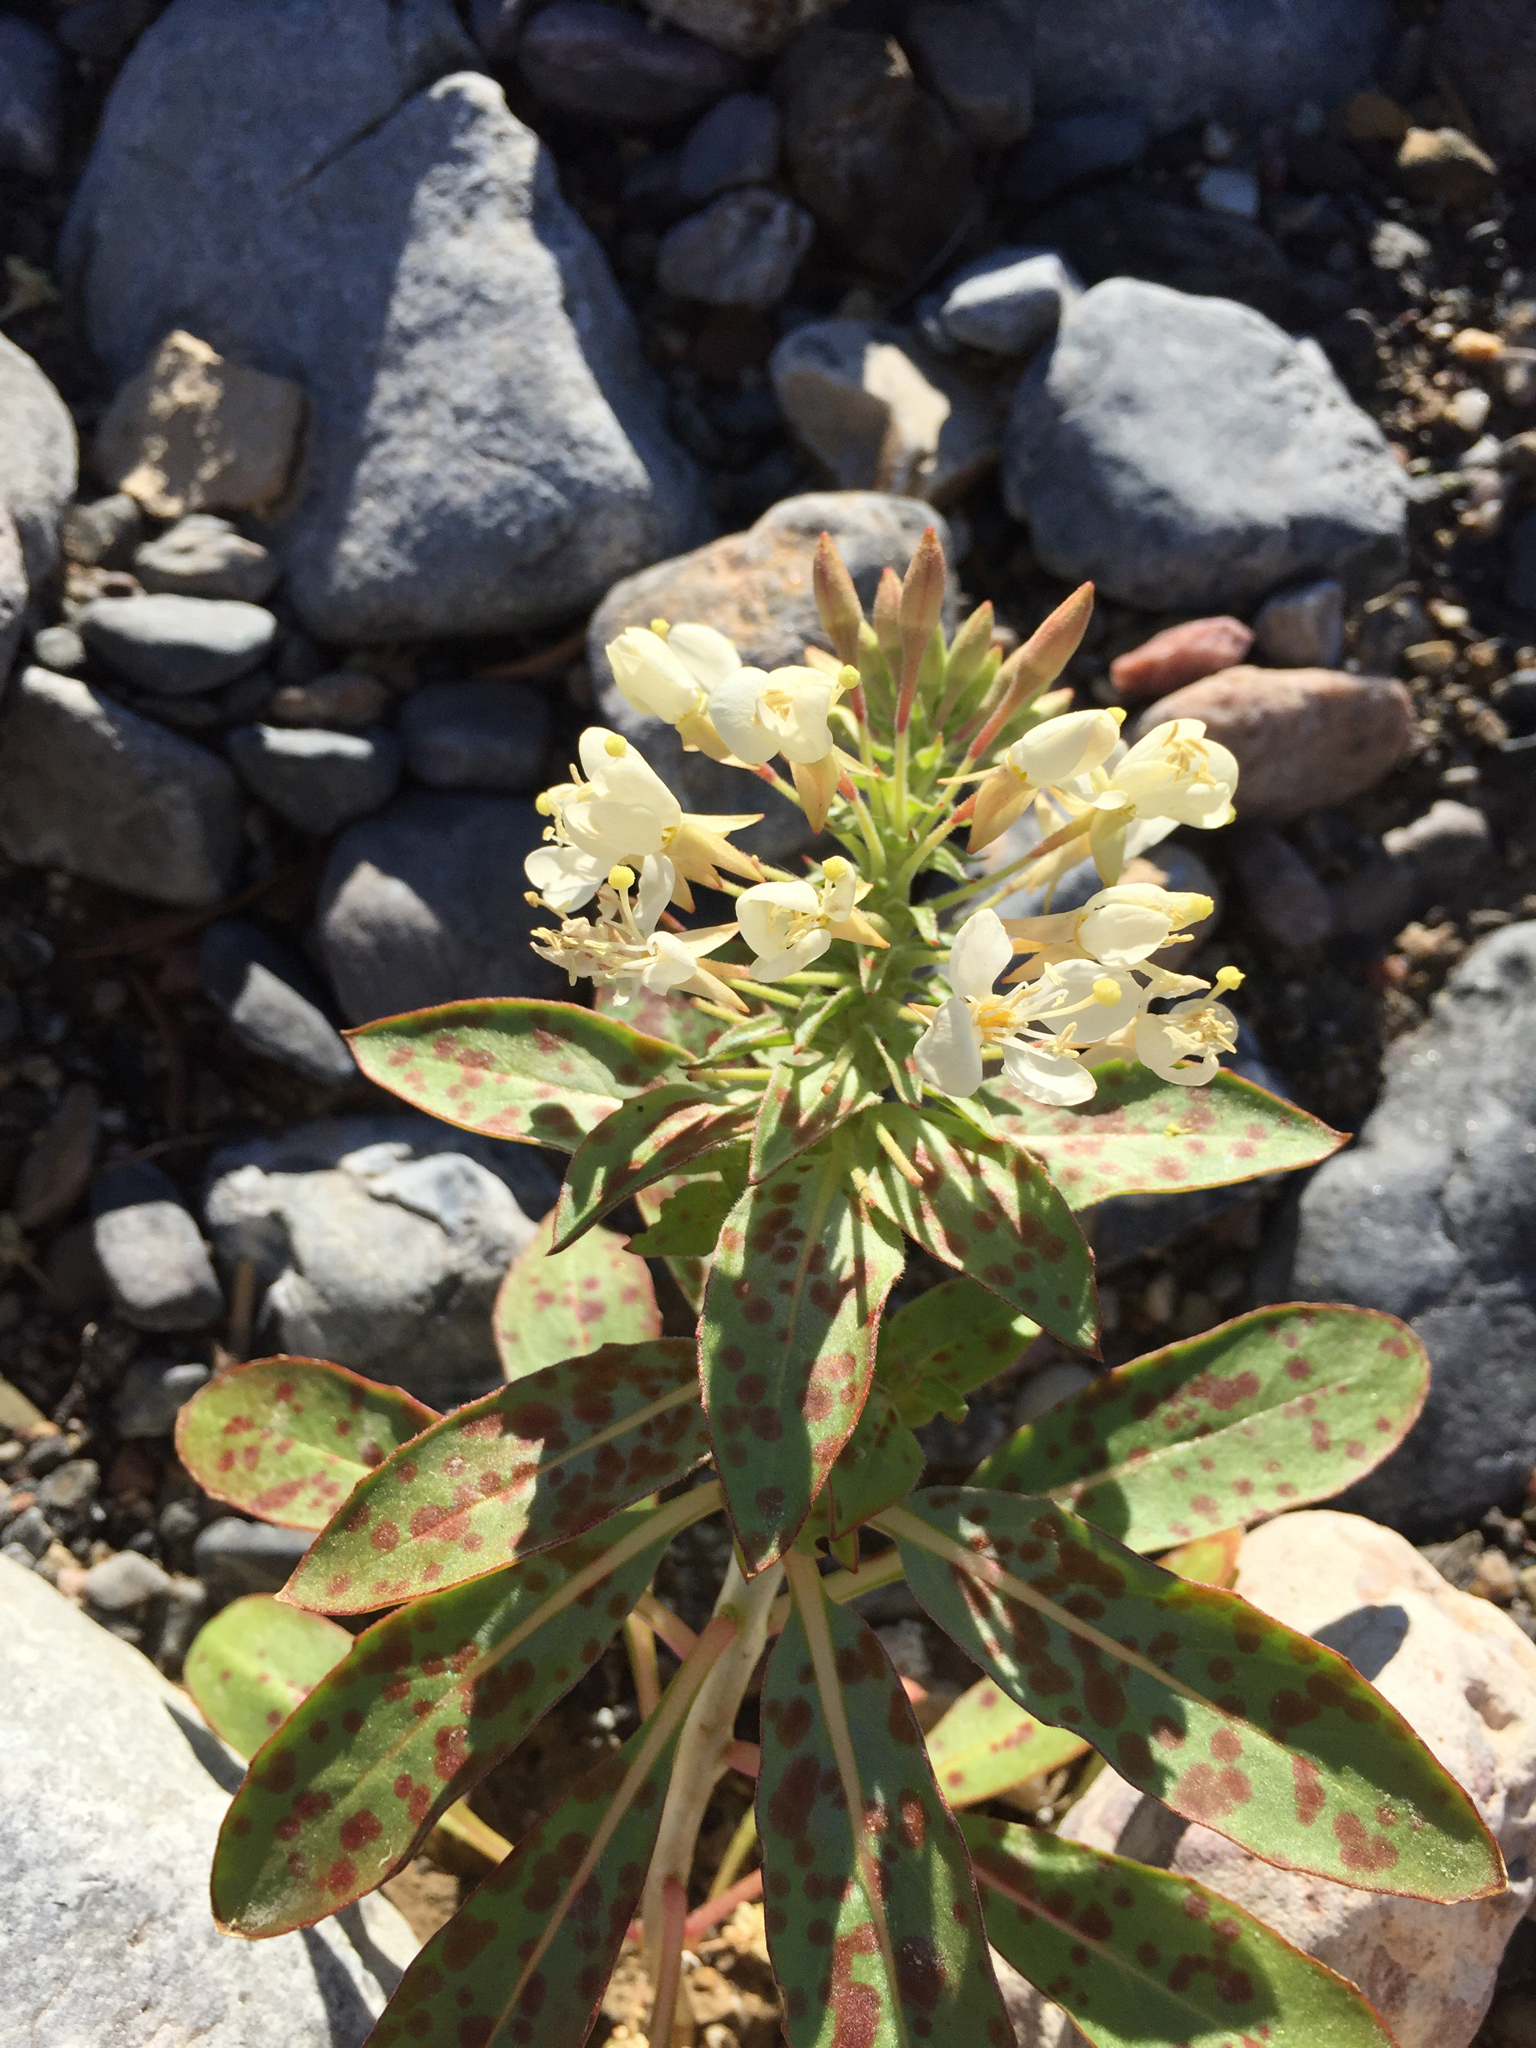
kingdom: Plantae
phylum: Tracheophyta
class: Magnoliopsida
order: Myrtales
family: Onagraceae
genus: Eremothera
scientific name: Eremothera boothii
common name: Booth's evening primrose
